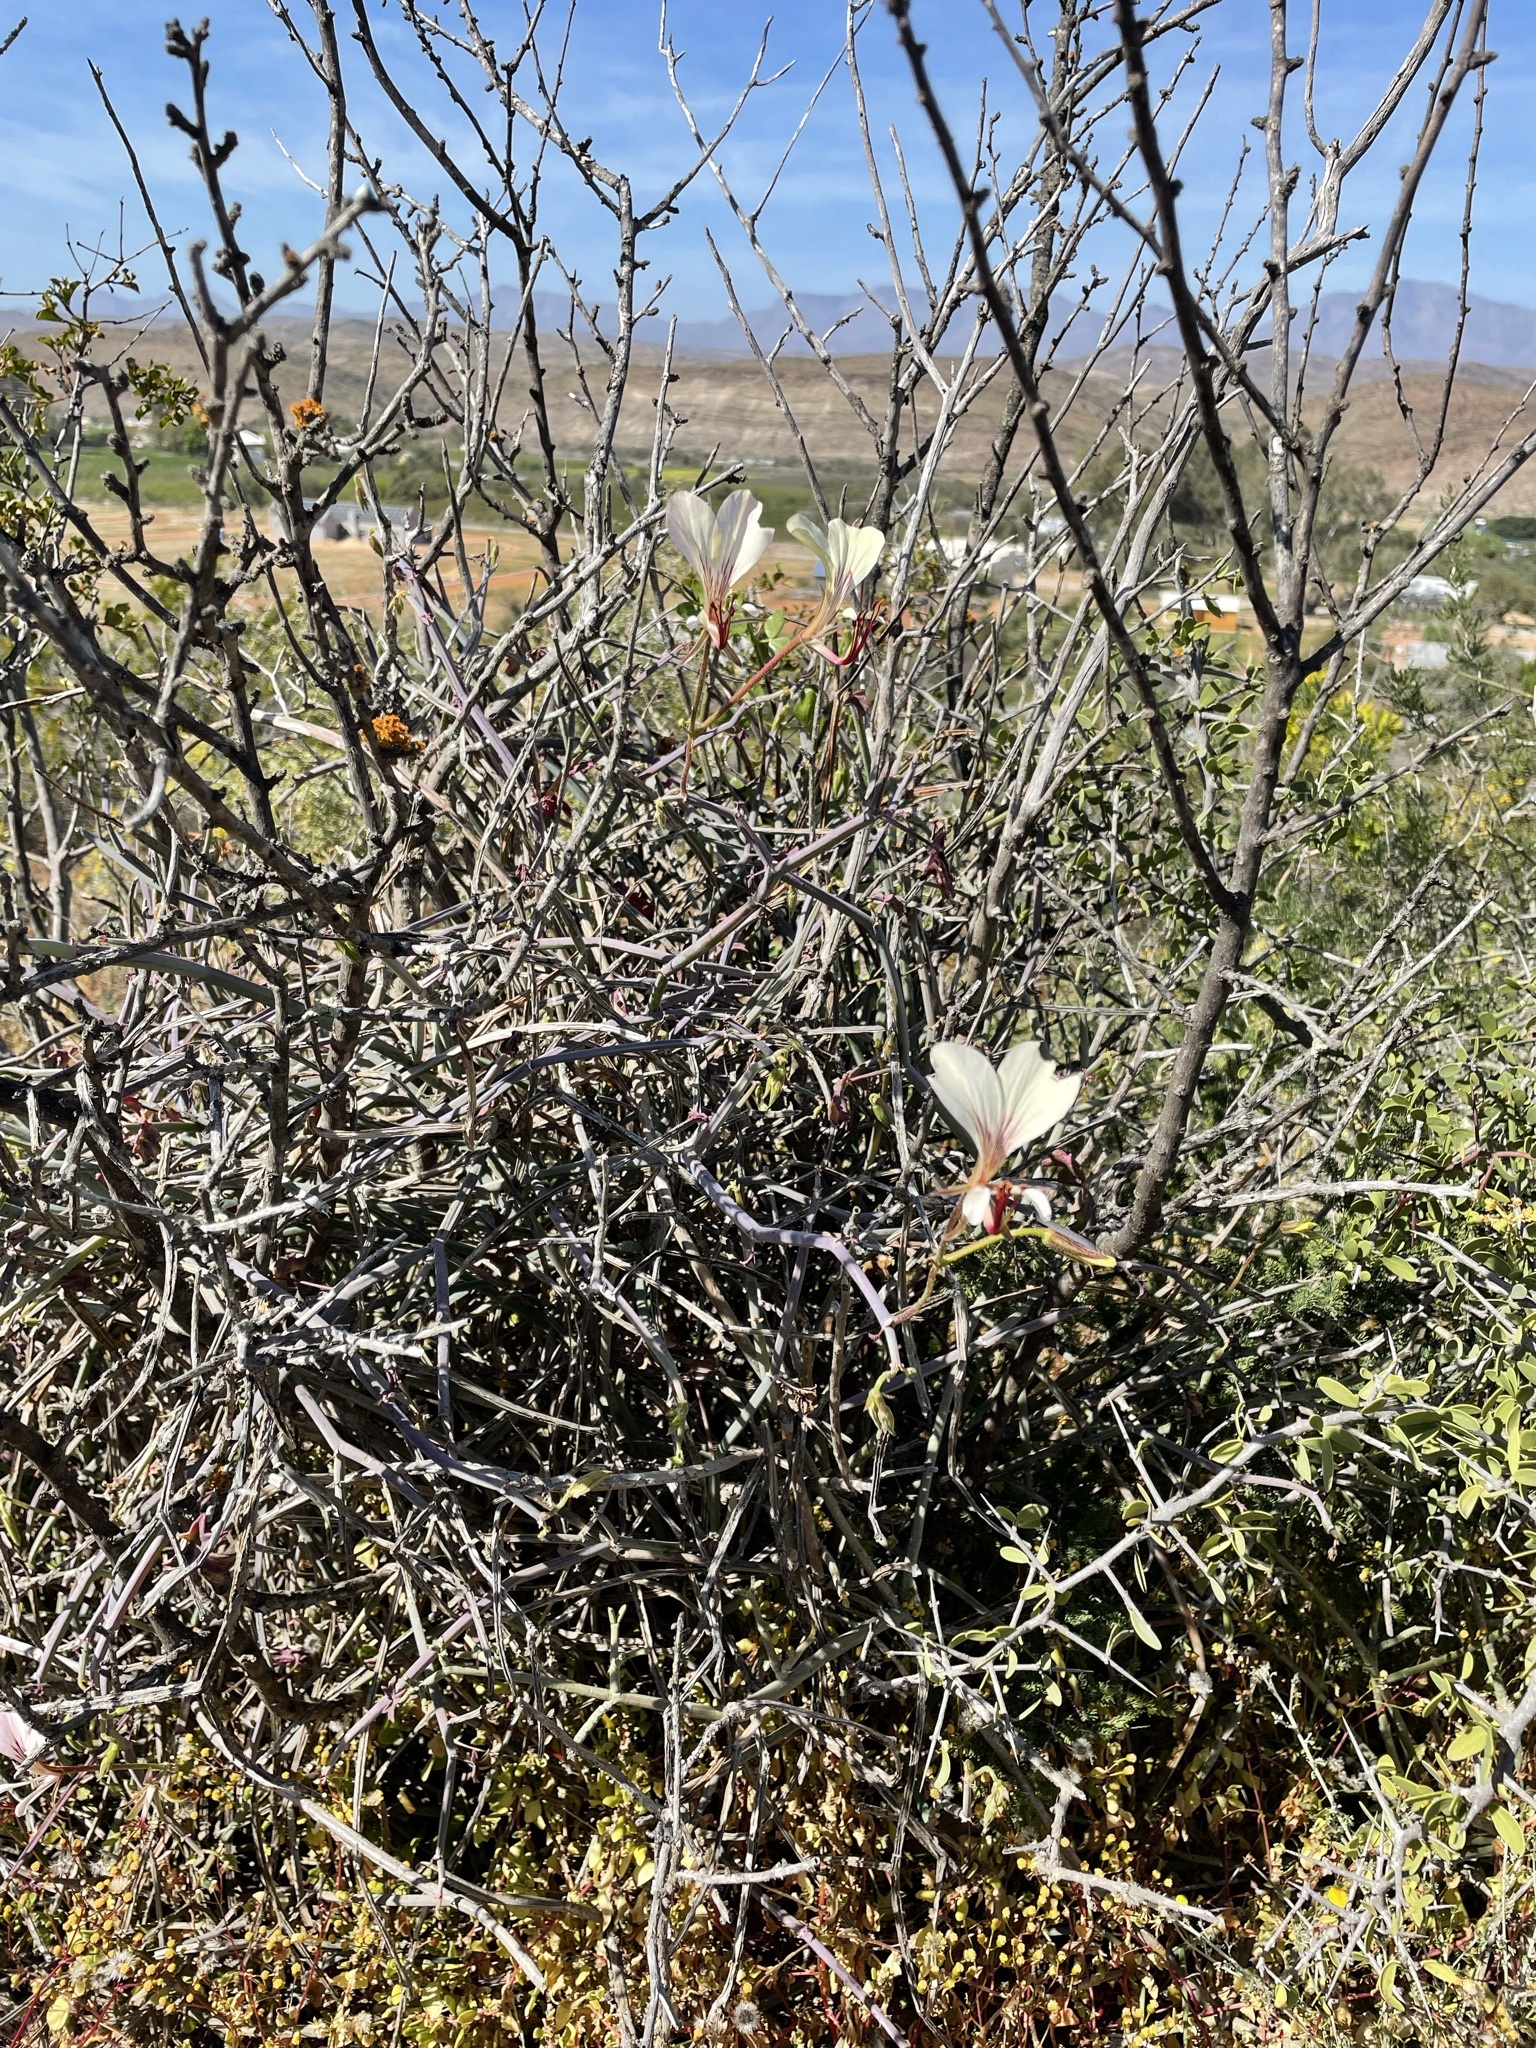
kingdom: Plantae
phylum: Tracheophyta
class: Magnoliopsida
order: Geraniales
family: Geraniaceae
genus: Pelargonium
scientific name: Pelargonium tetragonum
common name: Square-stack crane's-bill
